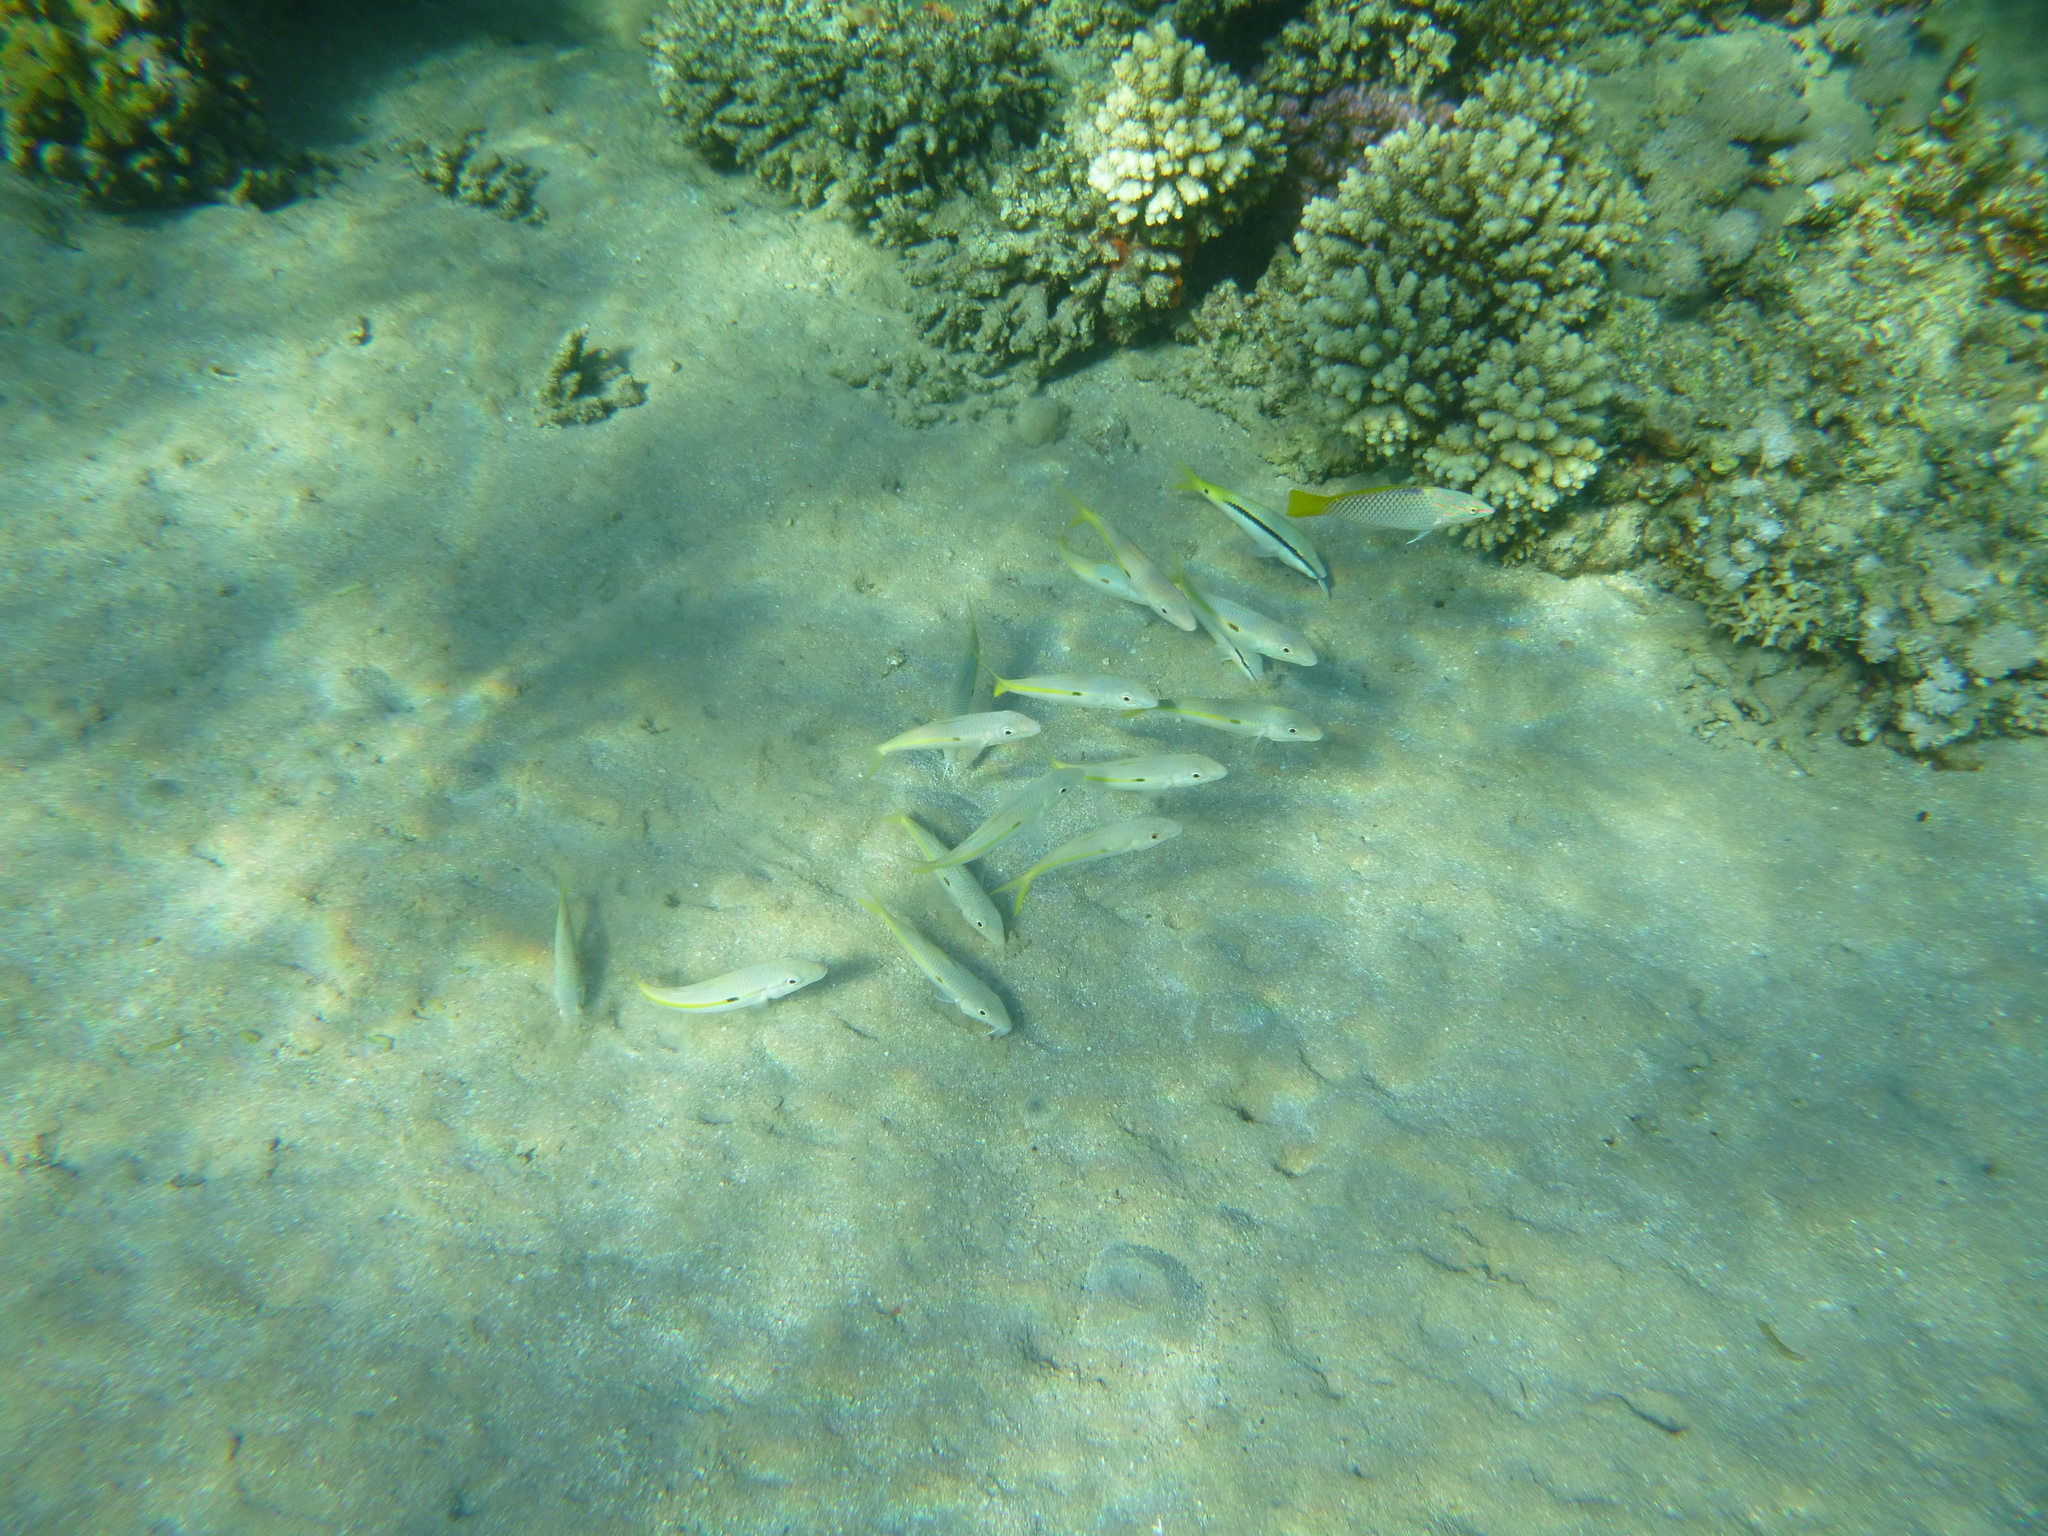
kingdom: Animalia
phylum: Chordata
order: Perciformes
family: Mullidae
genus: Mulloidichthys
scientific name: Mulloidichthys flavolineatus
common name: Yellowstripe goatfish
